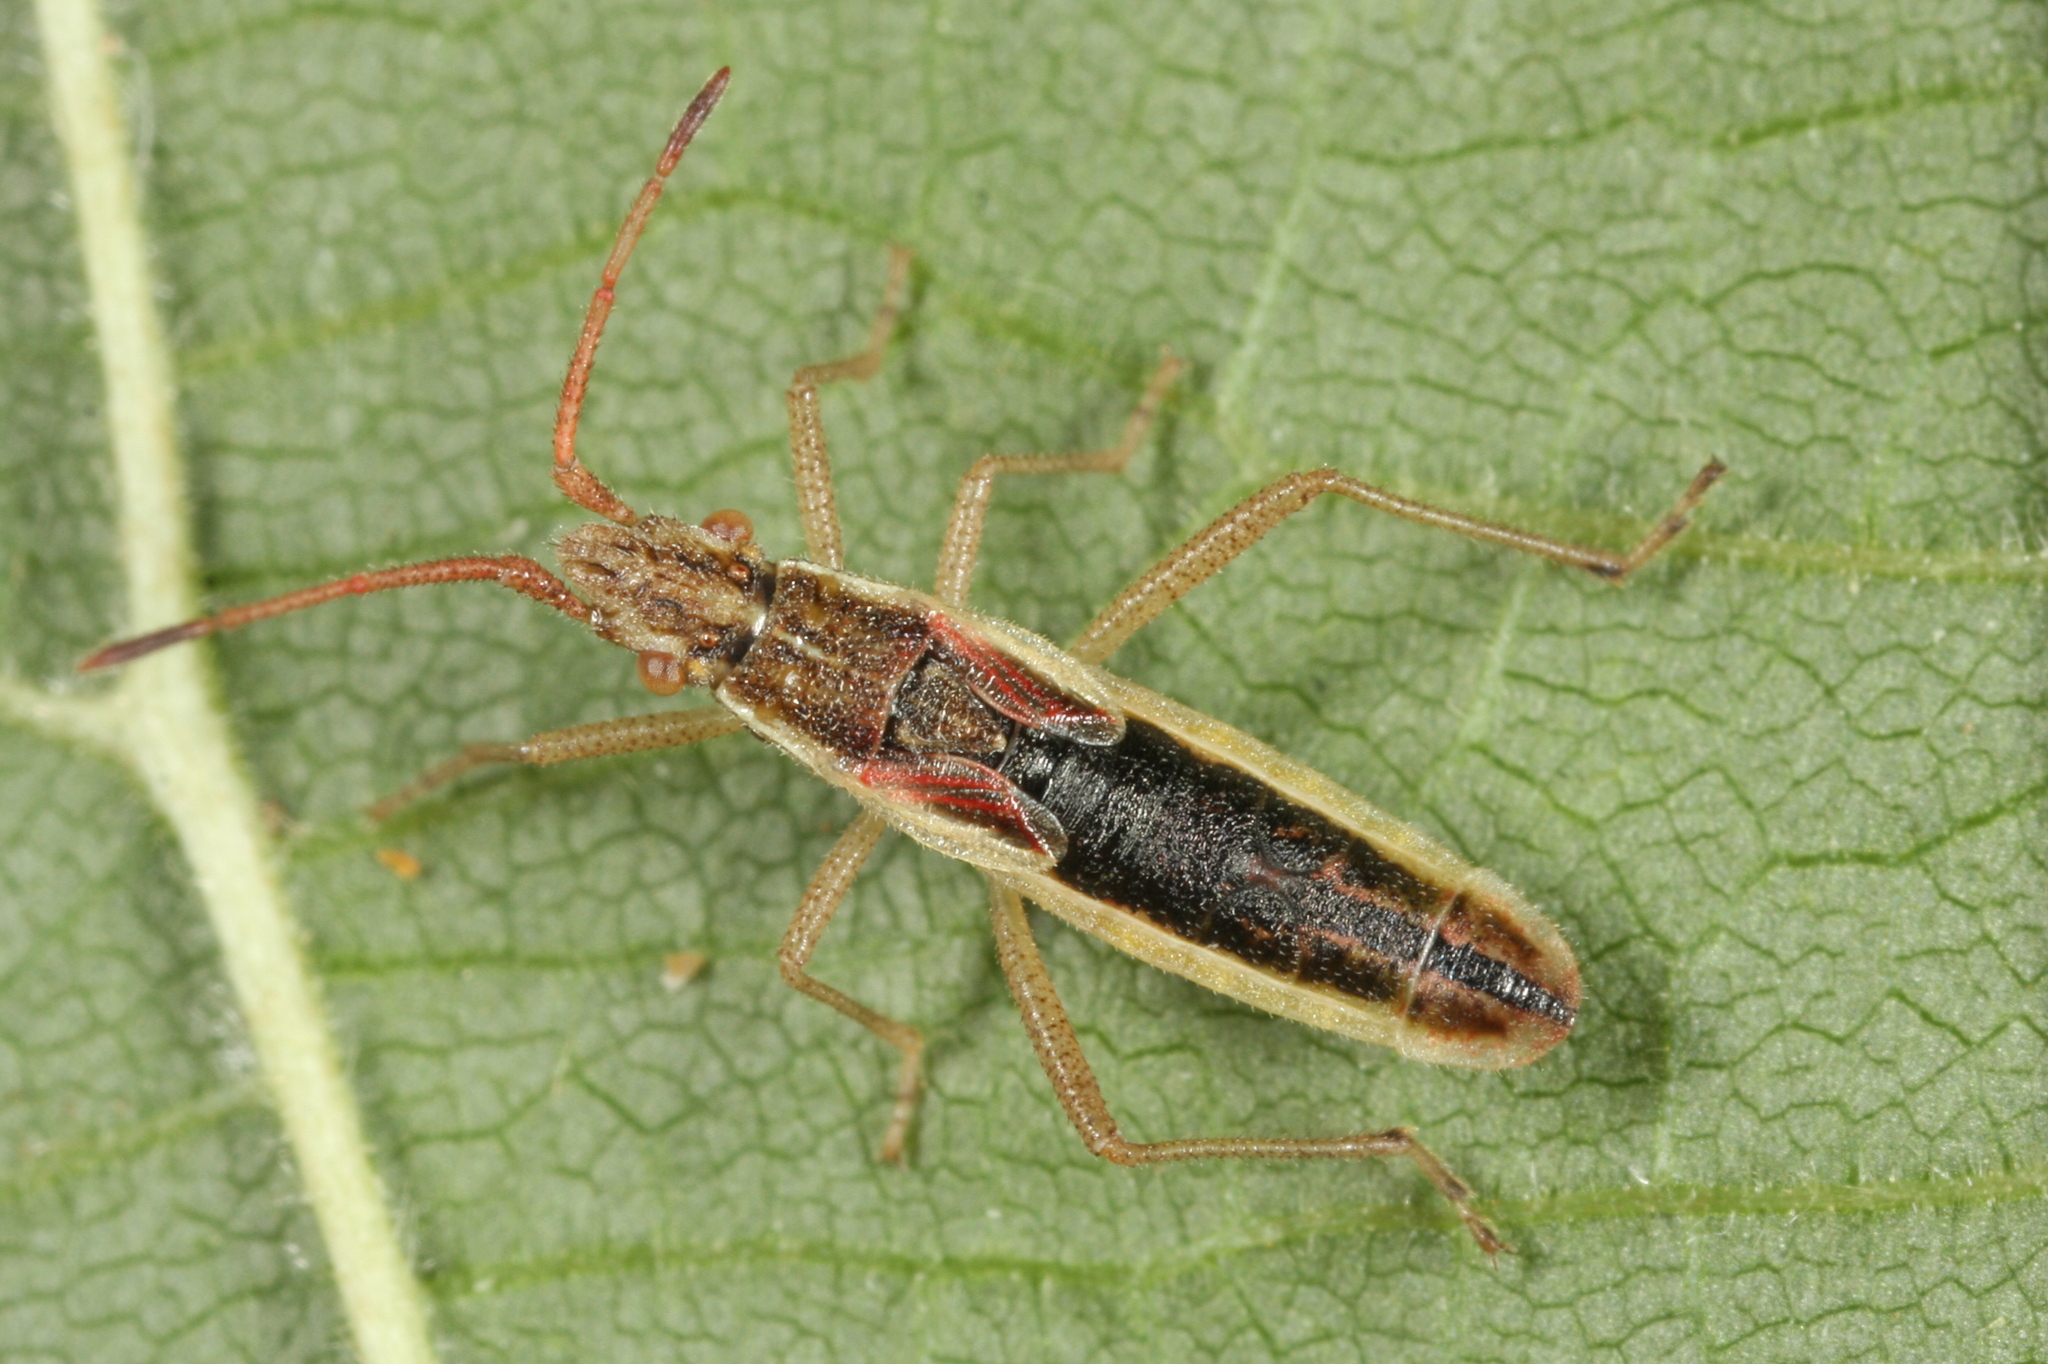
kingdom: Animalia
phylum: Arthropoda
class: Insecta
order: Hemiptera
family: Rhopalidae
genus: Myrmus
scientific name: Myrmus miriformis
